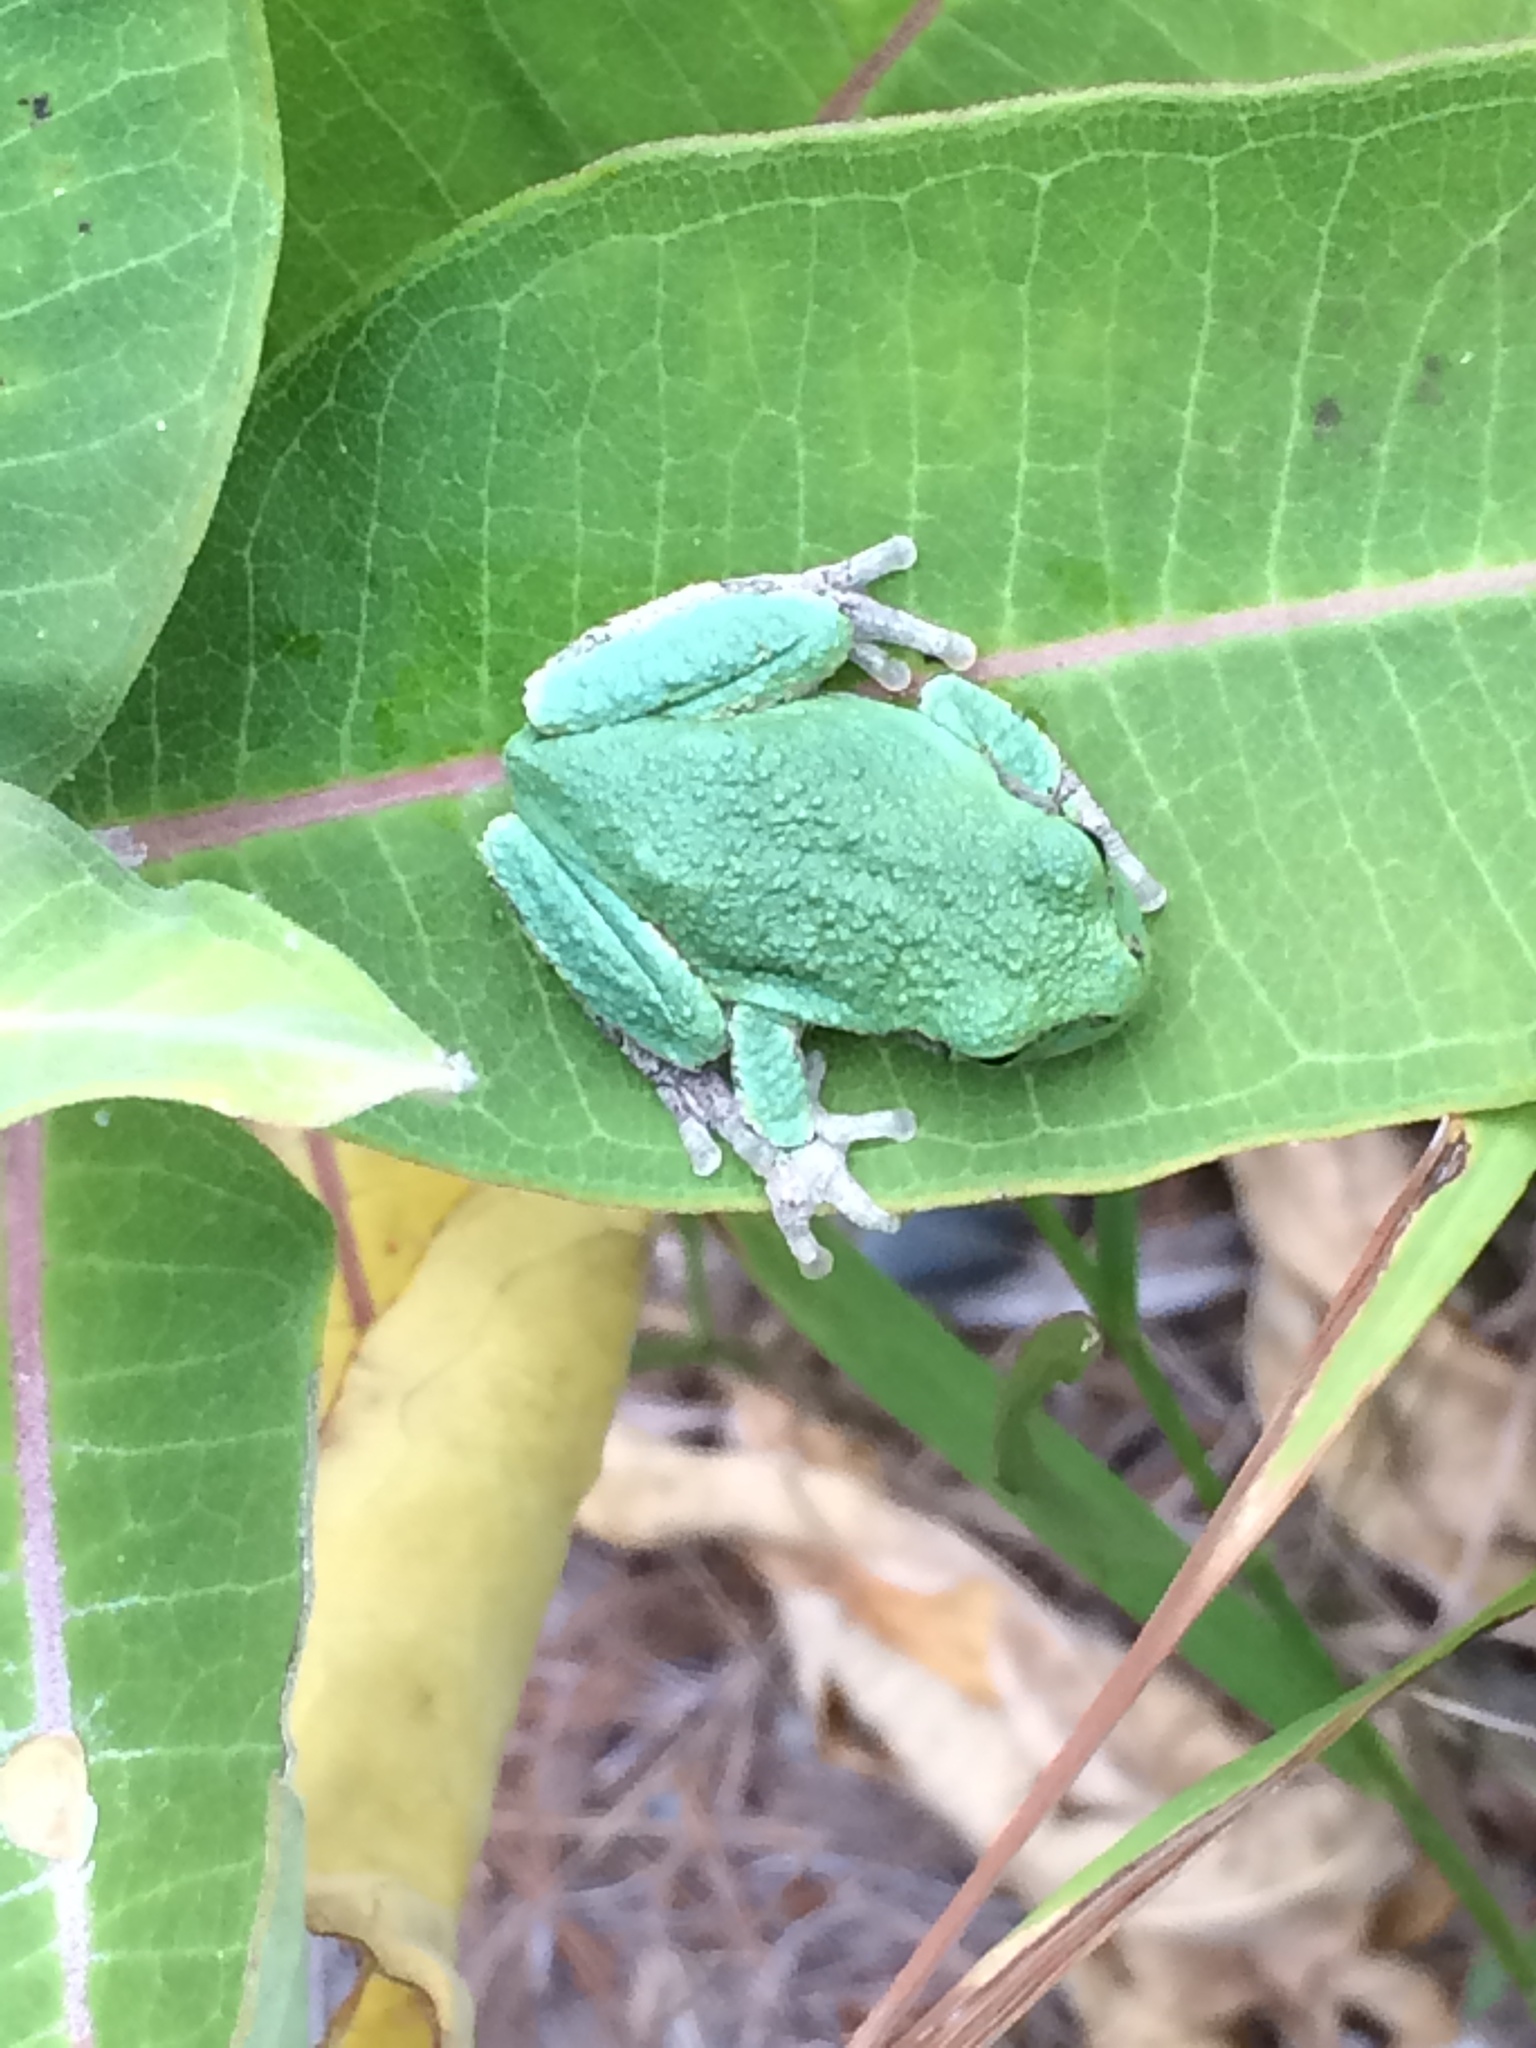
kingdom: Animalia
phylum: Chordata
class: Amphibia
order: Anura
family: Hylidae
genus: Hyla
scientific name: Hyla
